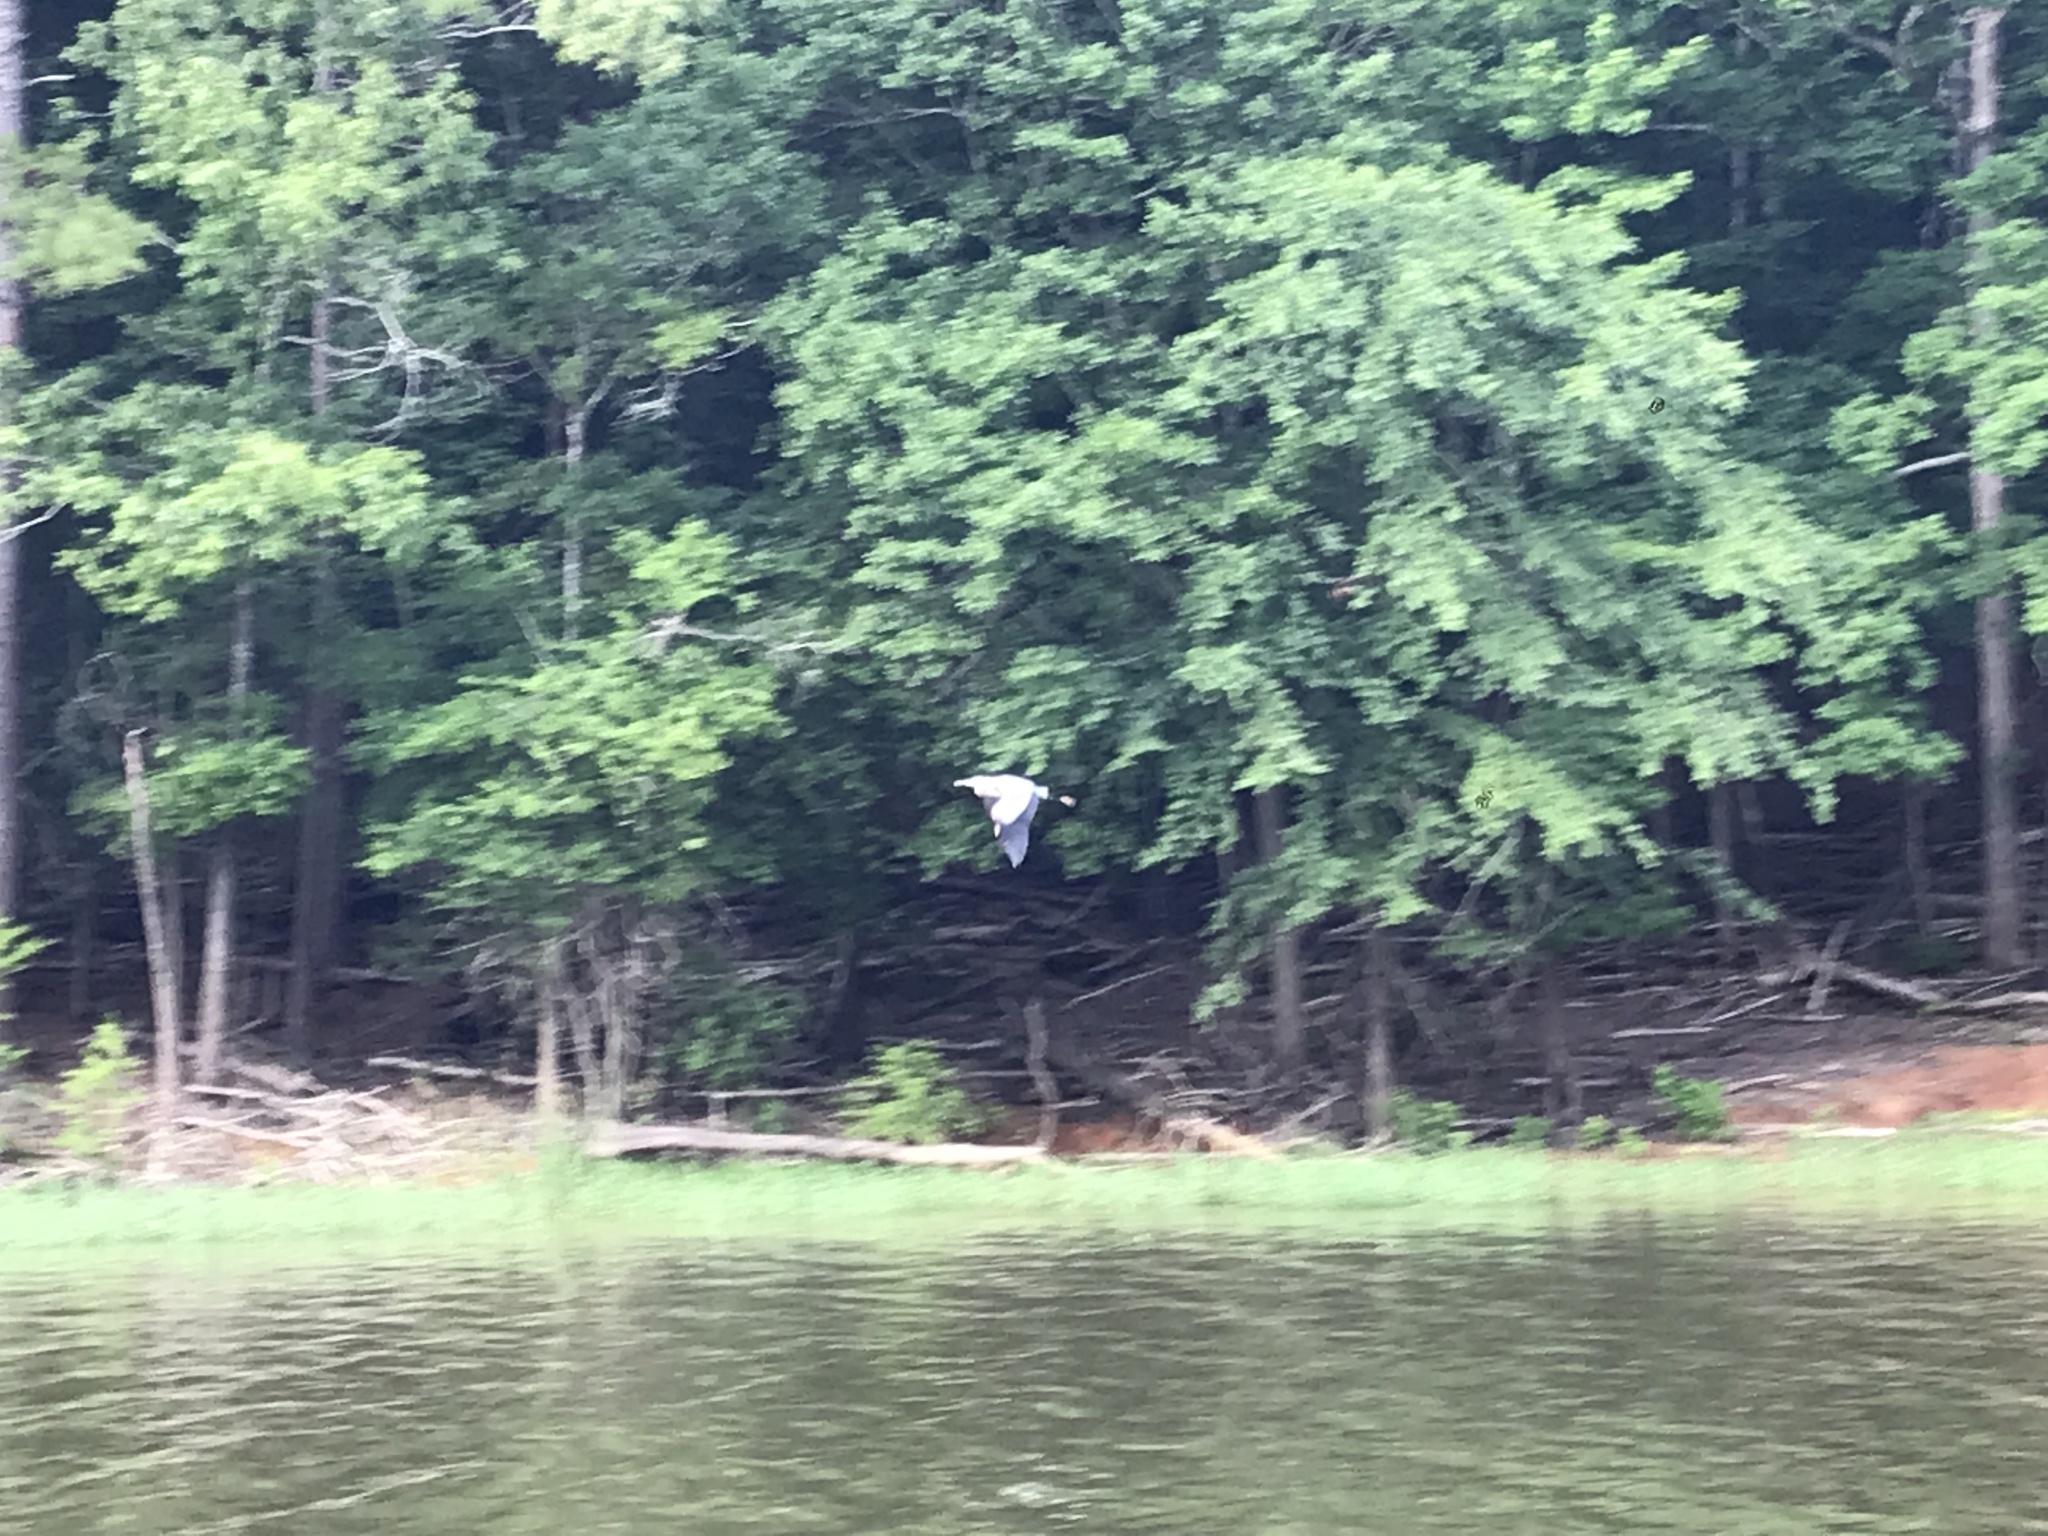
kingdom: Animalia
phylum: Chordata
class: Aves
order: Pelecaniformes
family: Ardeidae
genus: Ardea
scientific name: Ardea herodias
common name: Great blue heron
